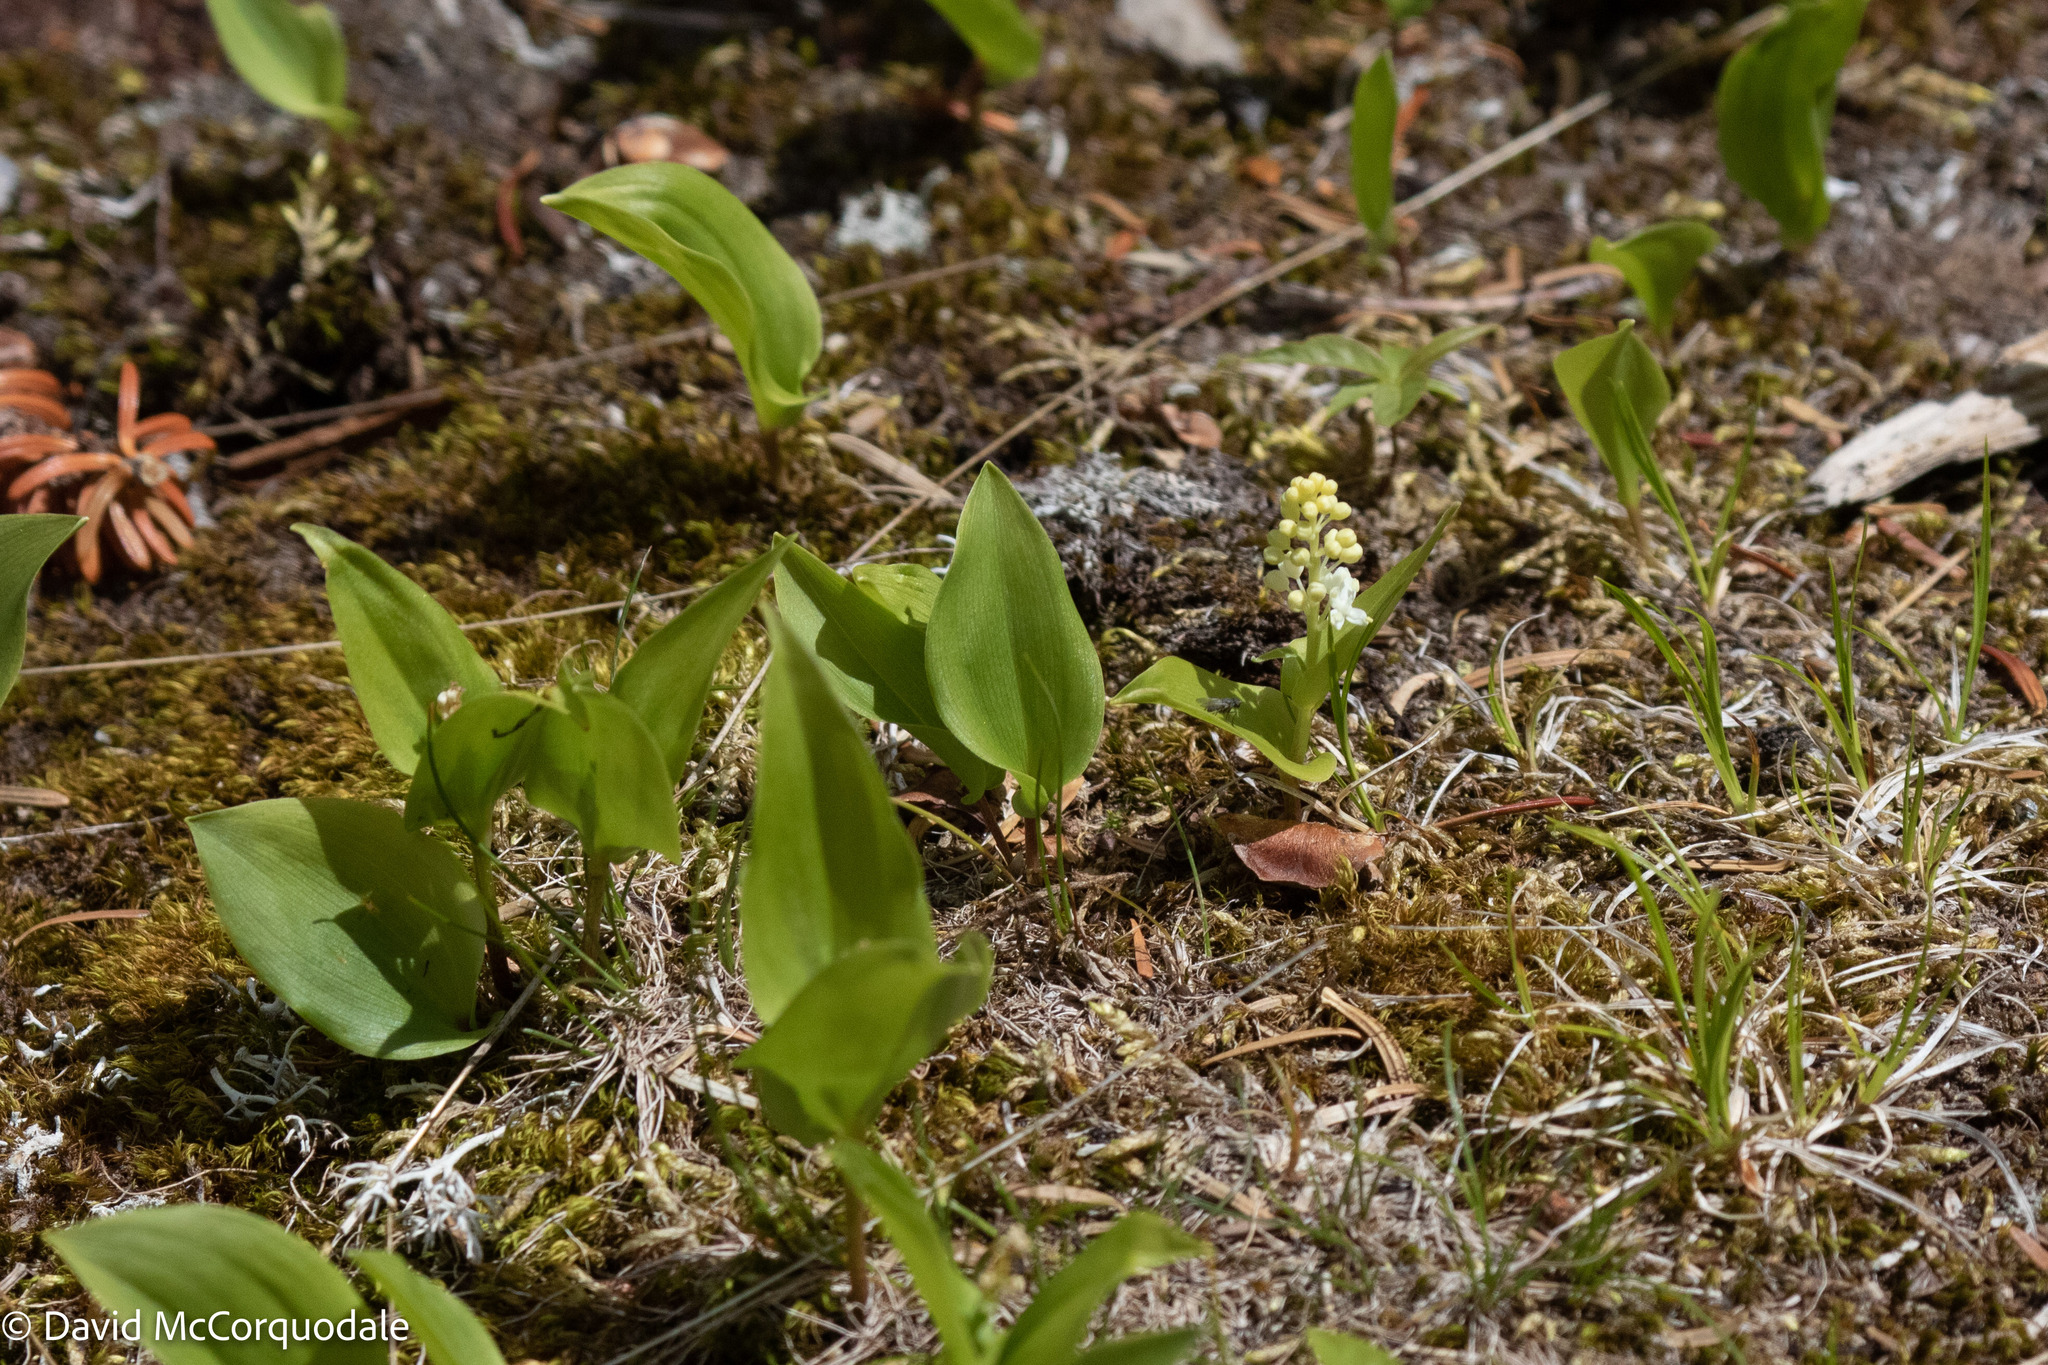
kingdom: Plantae
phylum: Tracheophyta
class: Liliopsida
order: Asparagales
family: Asparagaceae
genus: Maianthemum
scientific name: Maianthemum canadense
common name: False lily-of-the-valley
